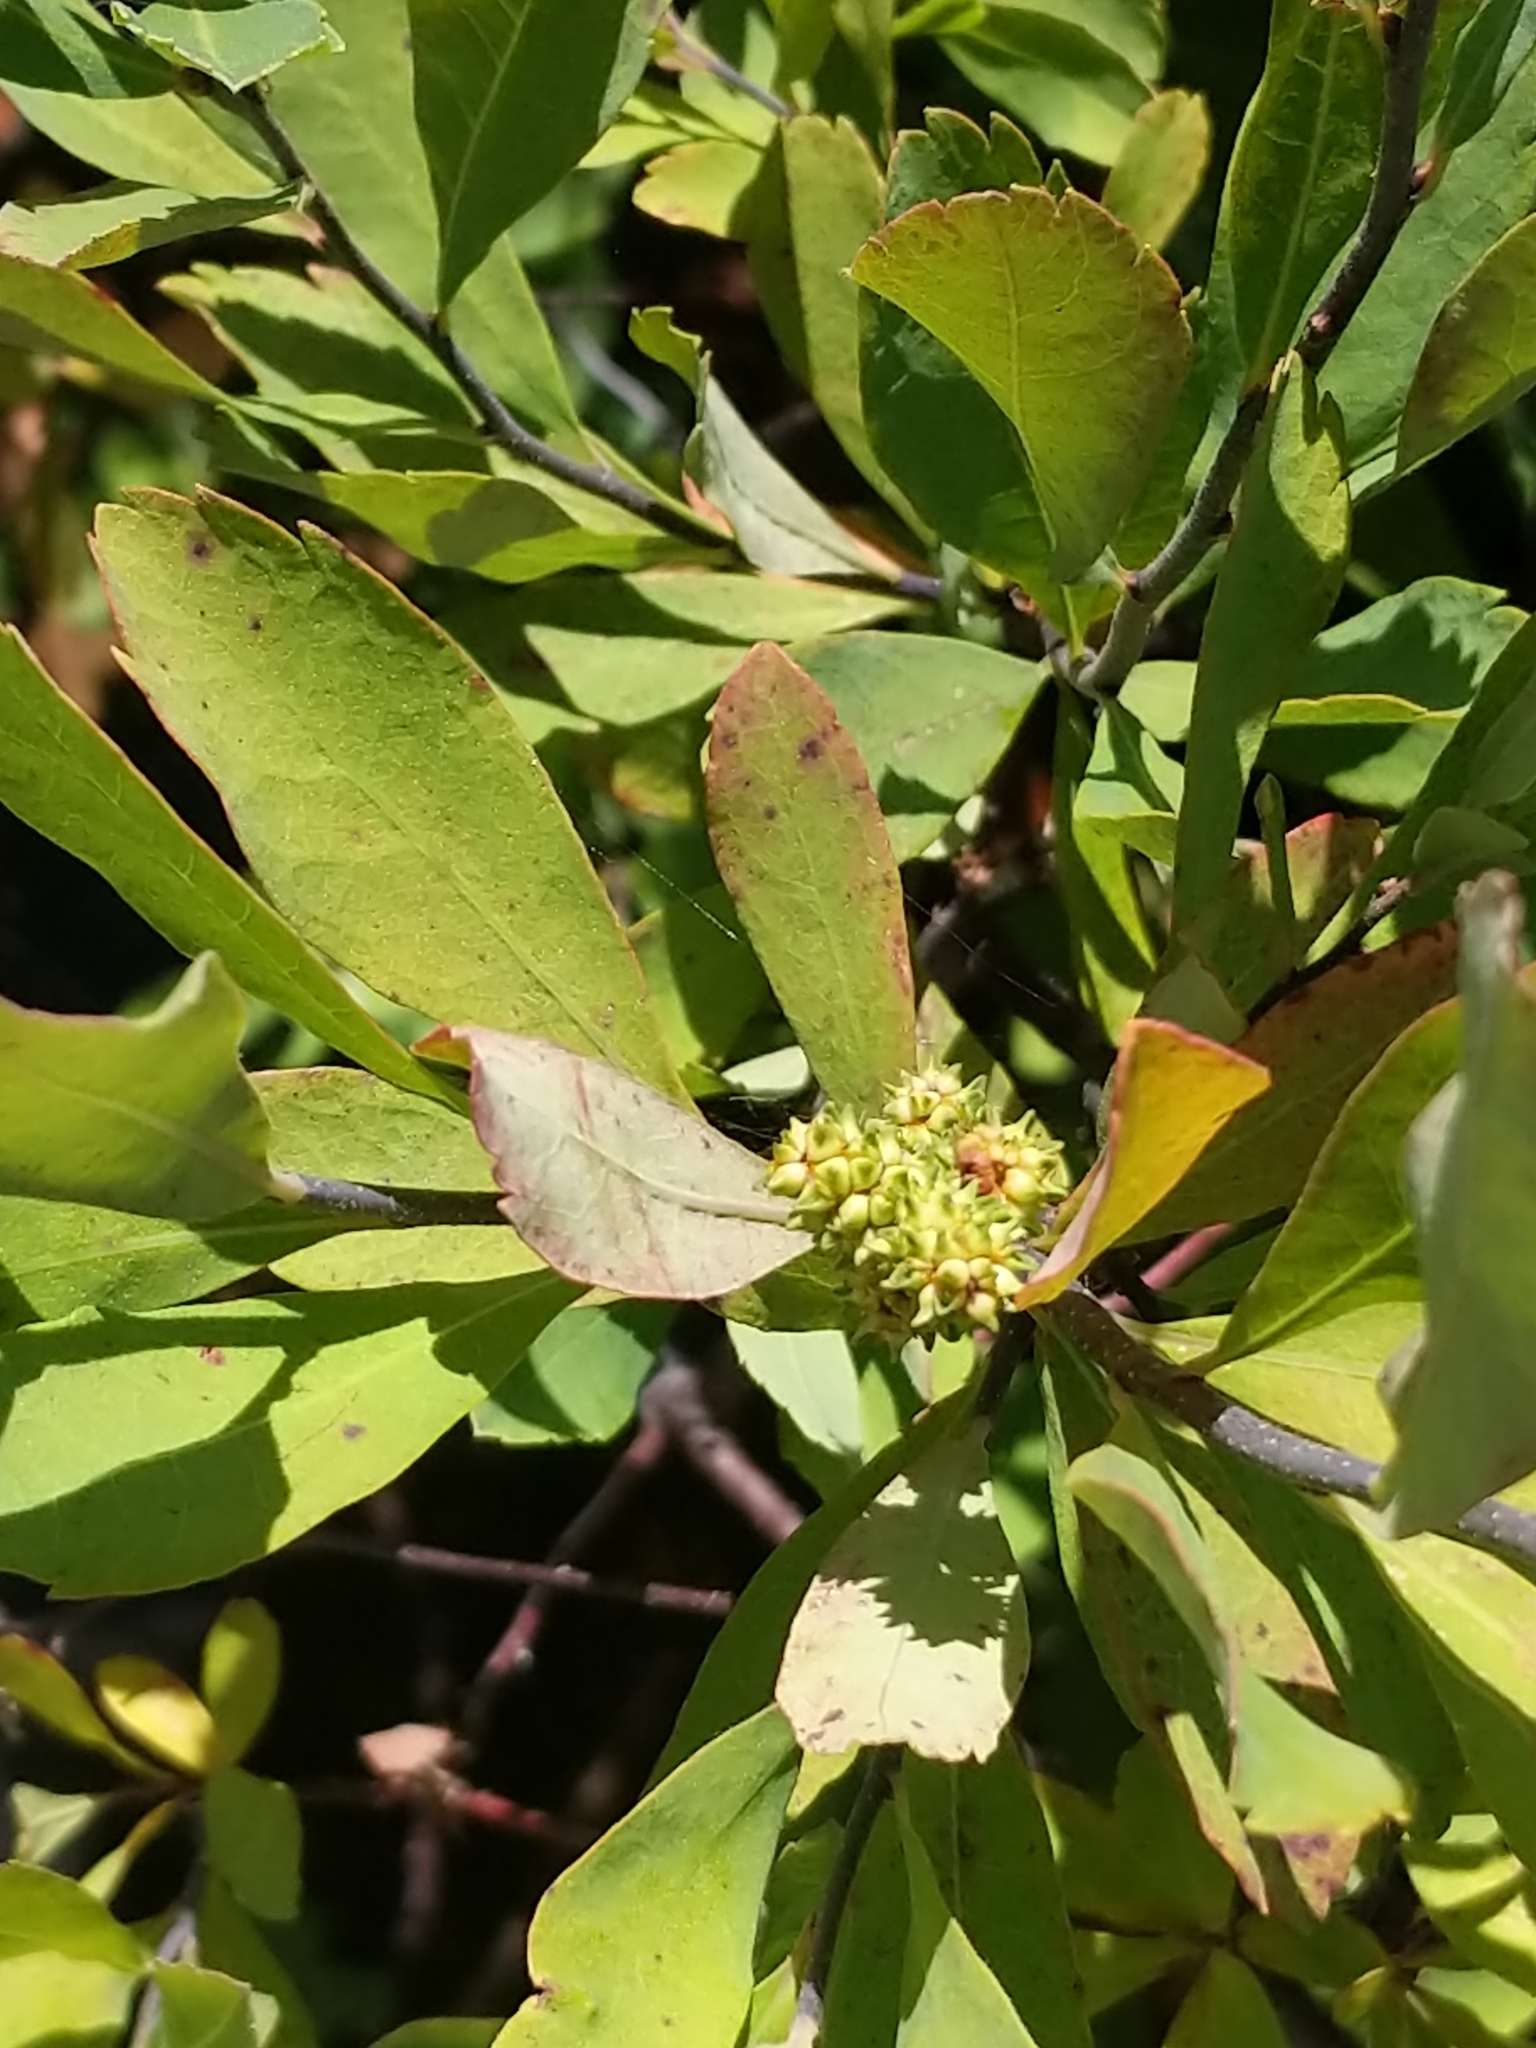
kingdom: Plantae
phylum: Tracheophyta
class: Magnoliopsida
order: Fagales
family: Myricaceae
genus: Myrica
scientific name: Myrica gale
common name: Sweet gale
